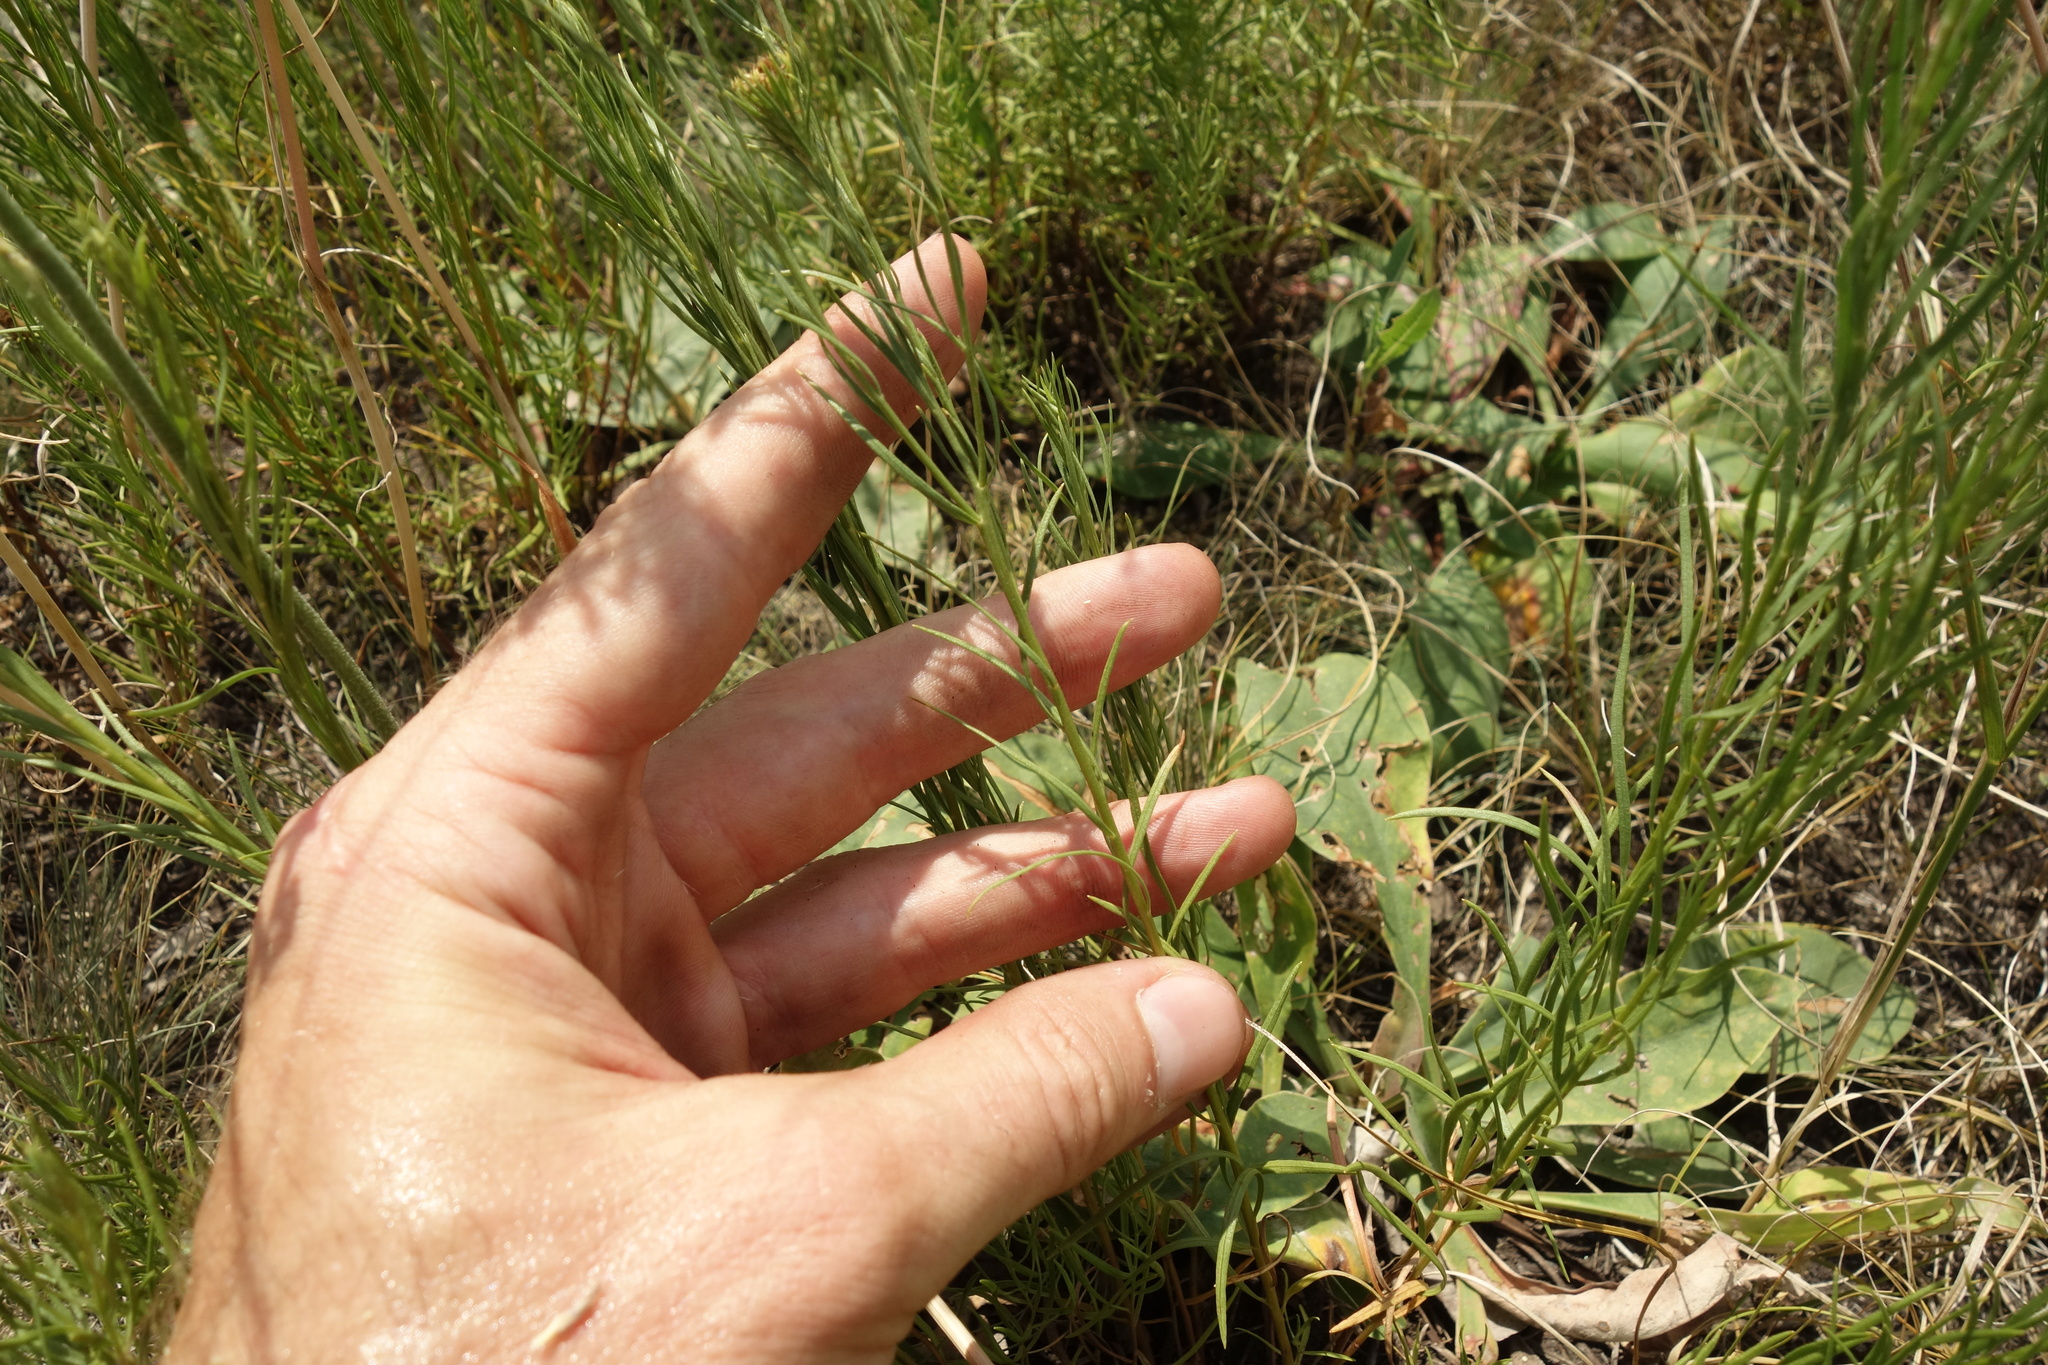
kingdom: Plantae
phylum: Tracheophyta
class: Magnoliopsida
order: Asterales
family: Asteraceae
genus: Galatella
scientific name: Galatella linosyris
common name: Goldilocks aster
